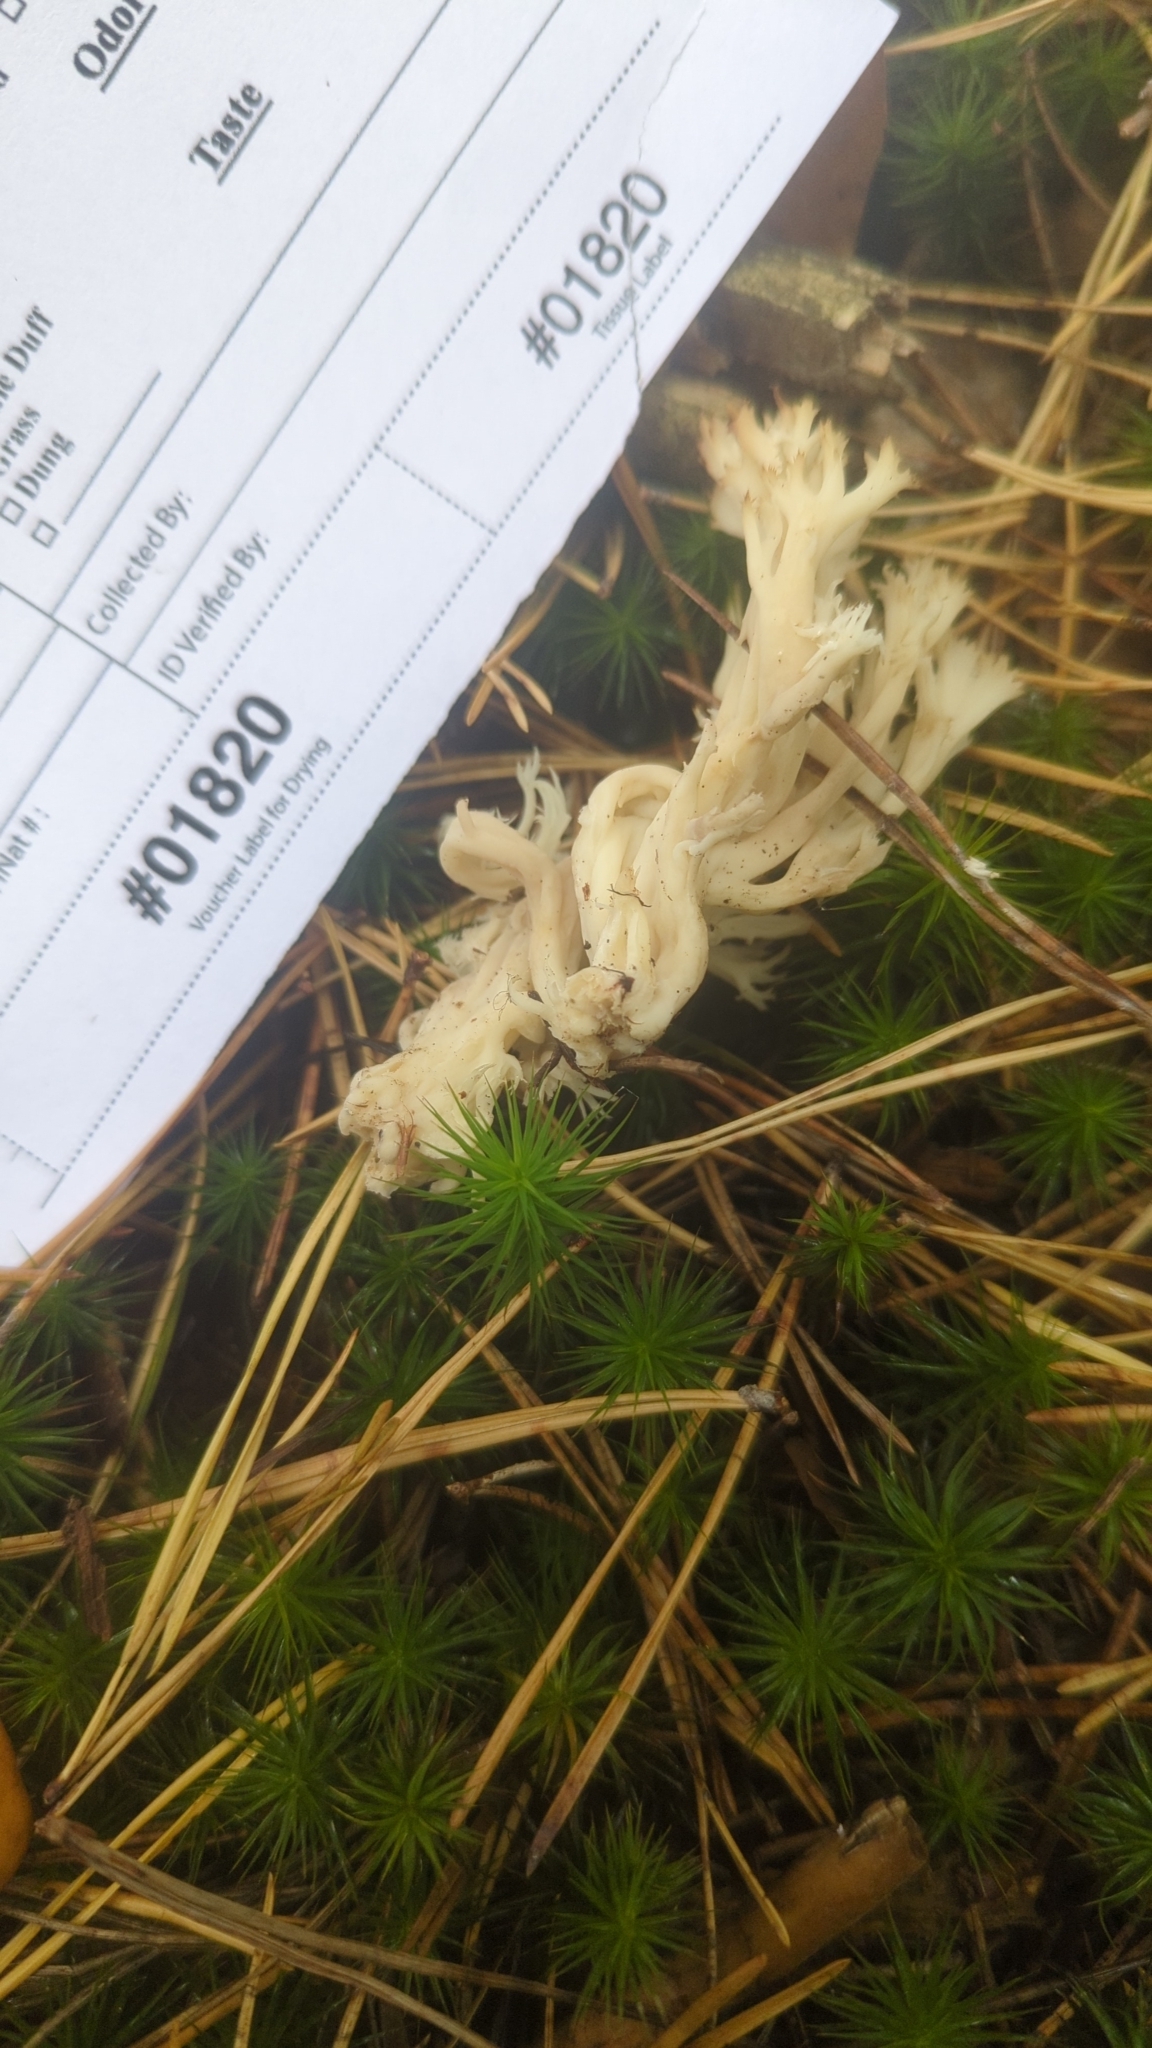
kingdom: Fungi
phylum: Basidiomycota
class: Agaricomycetes
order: Cantharellales
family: Hydnaceae
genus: Clavulina
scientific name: Clavulina coralloides
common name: Crested coral
